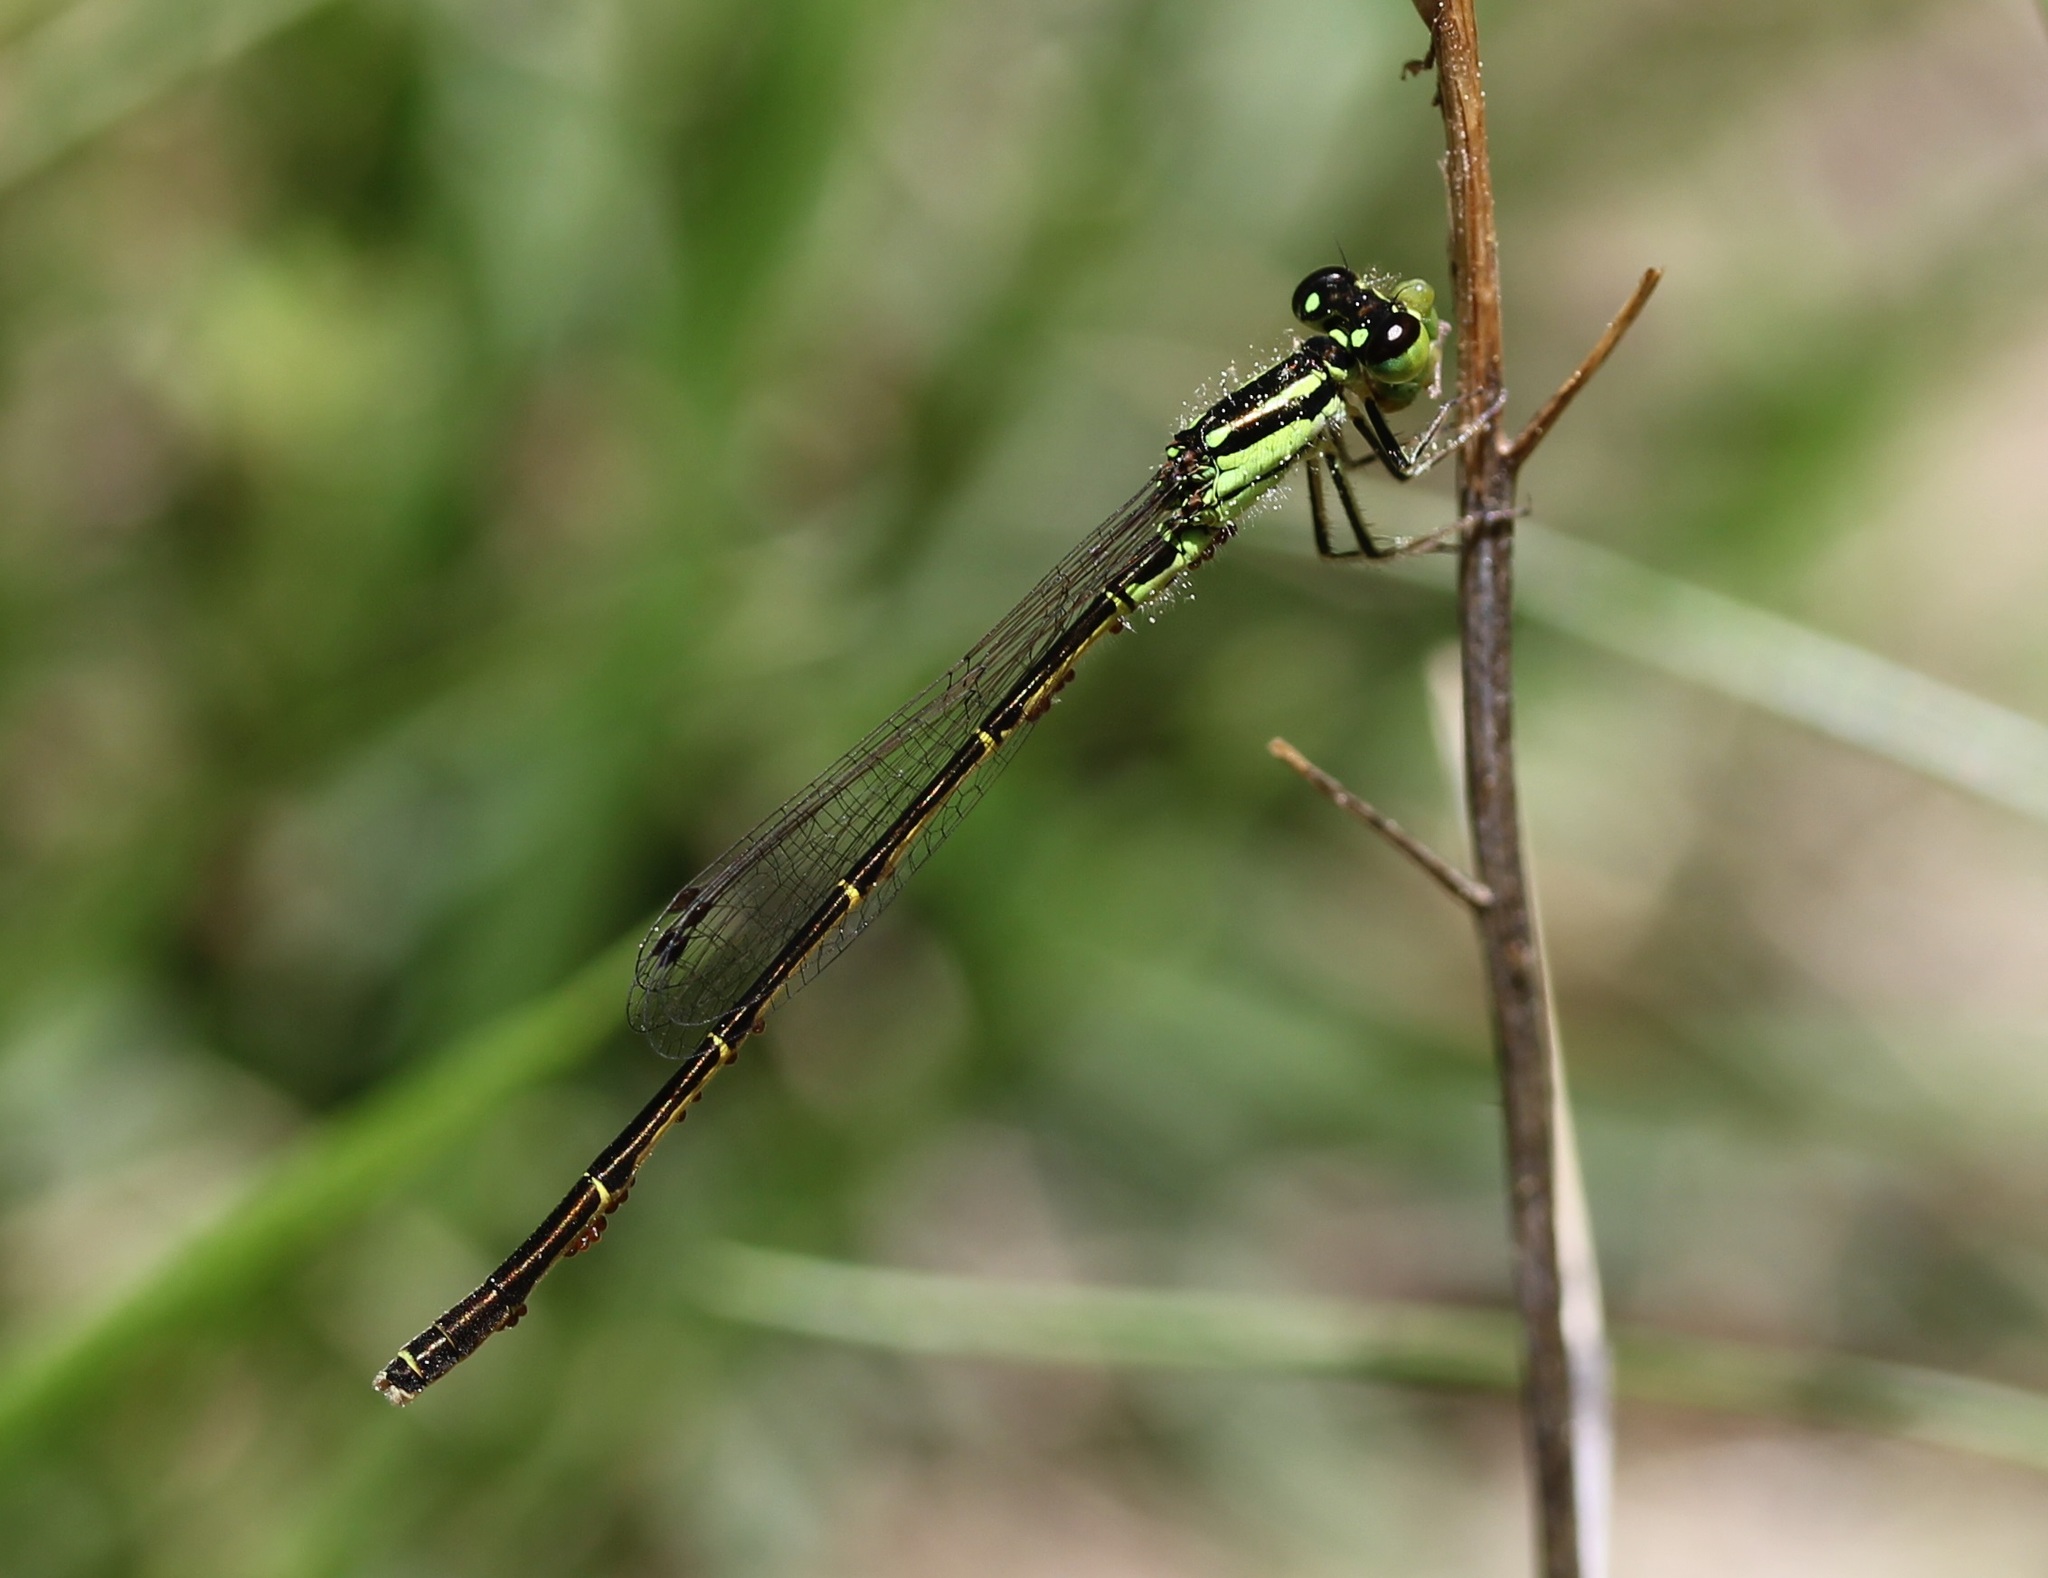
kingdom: Animalia
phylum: Arthropoda
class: Insecta
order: Odonata
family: Coenagrionidae
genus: Ischnura
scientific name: Ischnura posita
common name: Fragile forktail
